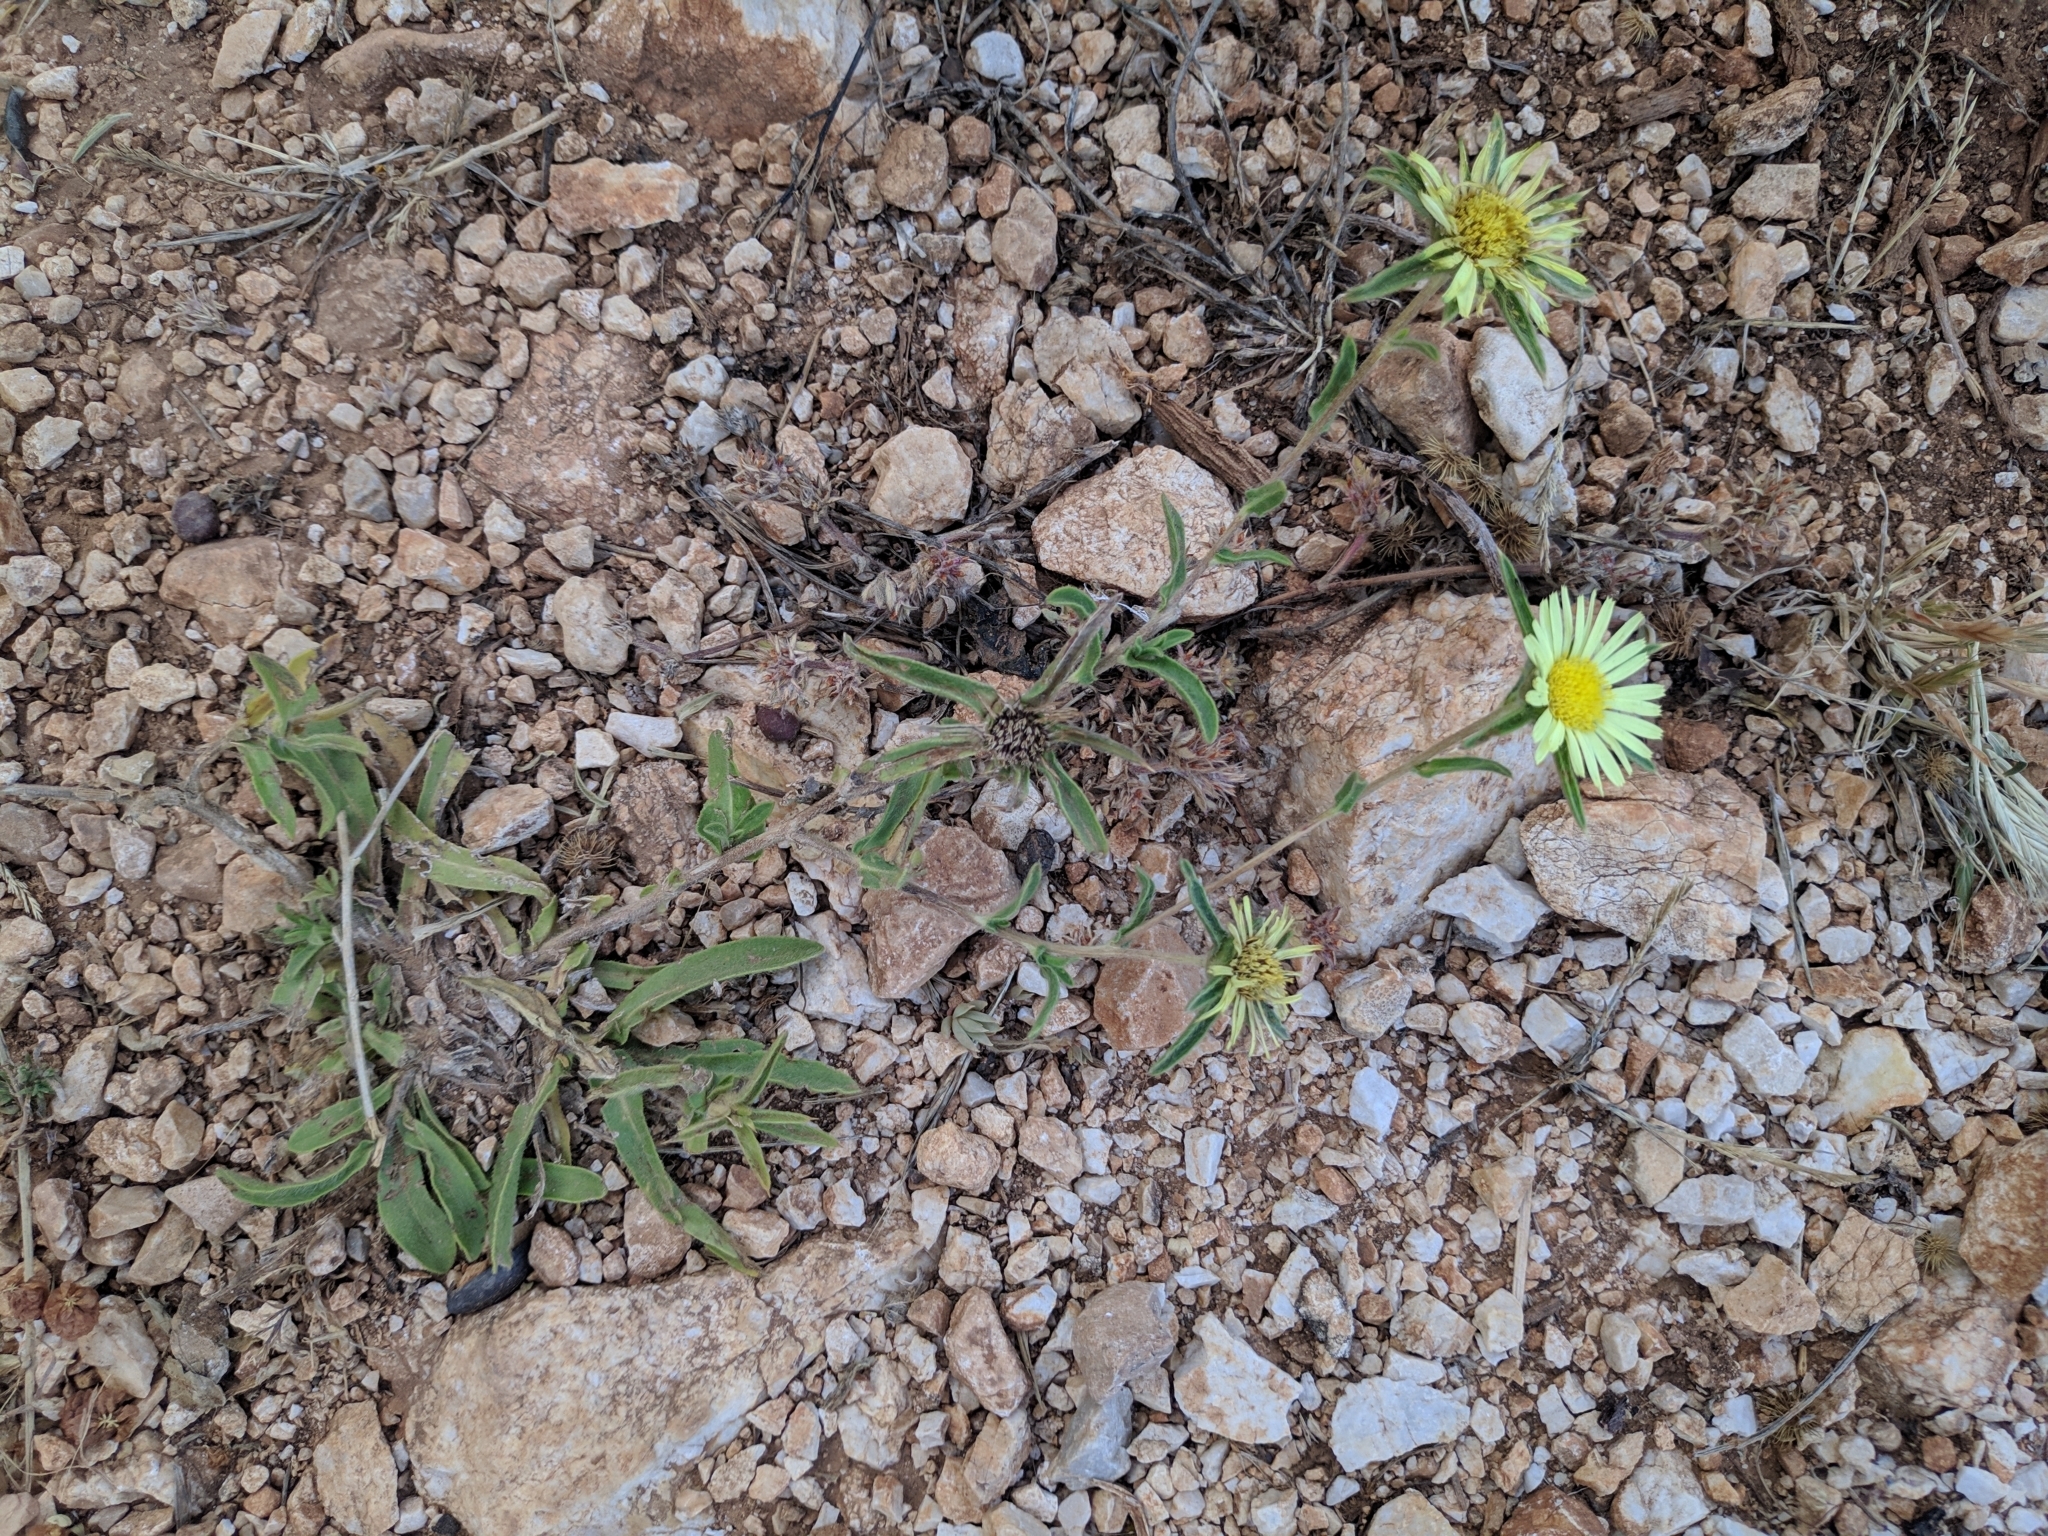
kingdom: Plantae
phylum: Tracheophyta
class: Magnoliopsida
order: Asterales
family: Asteraceae
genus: Pallenis
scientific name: Pallenis spinosa
